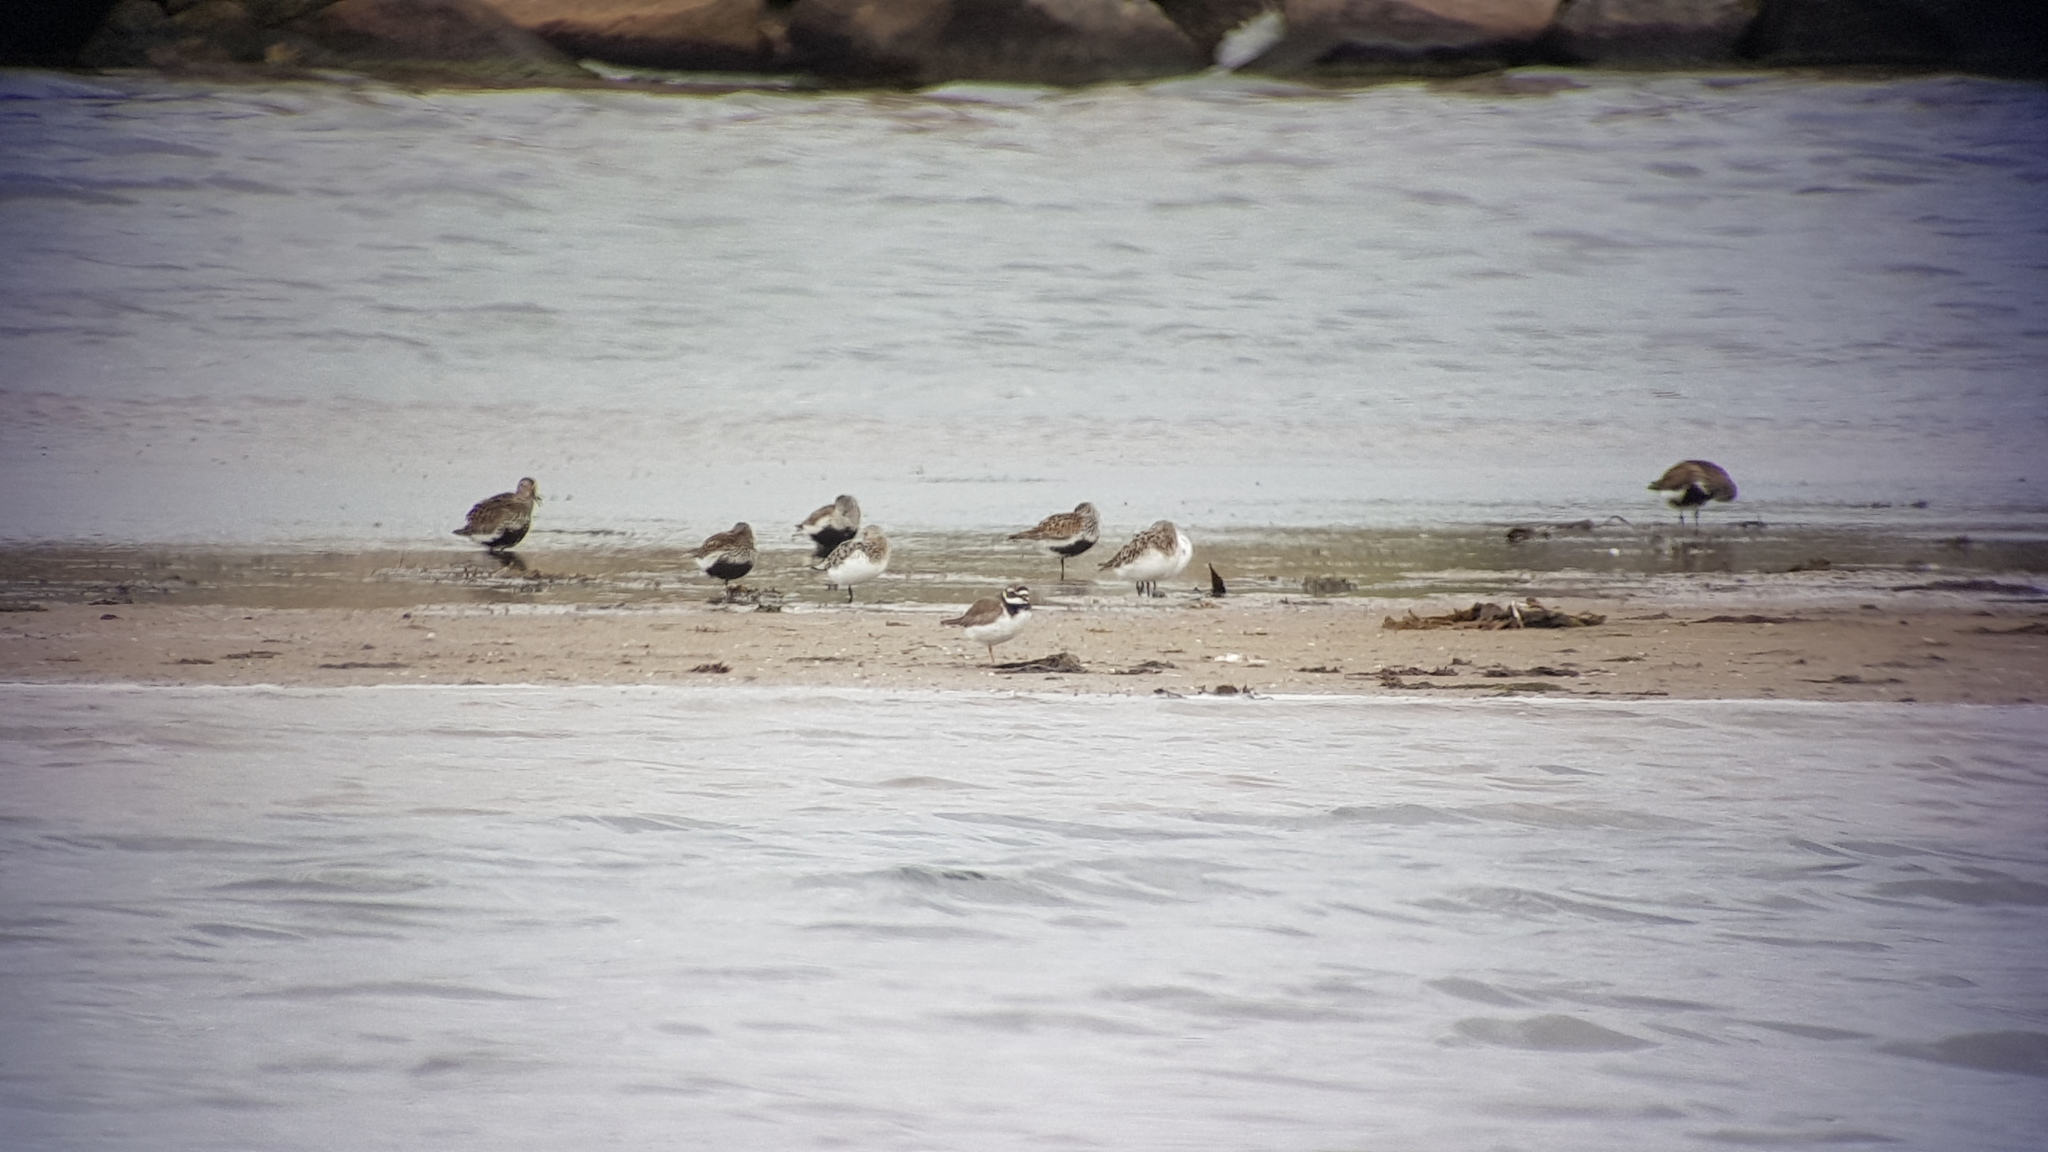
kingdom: Animalia
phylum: Chordata
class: Aves
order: Charadriiformes
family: Scolopacidae
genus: Calidris
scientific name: Calidris alba
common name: Sanderling
